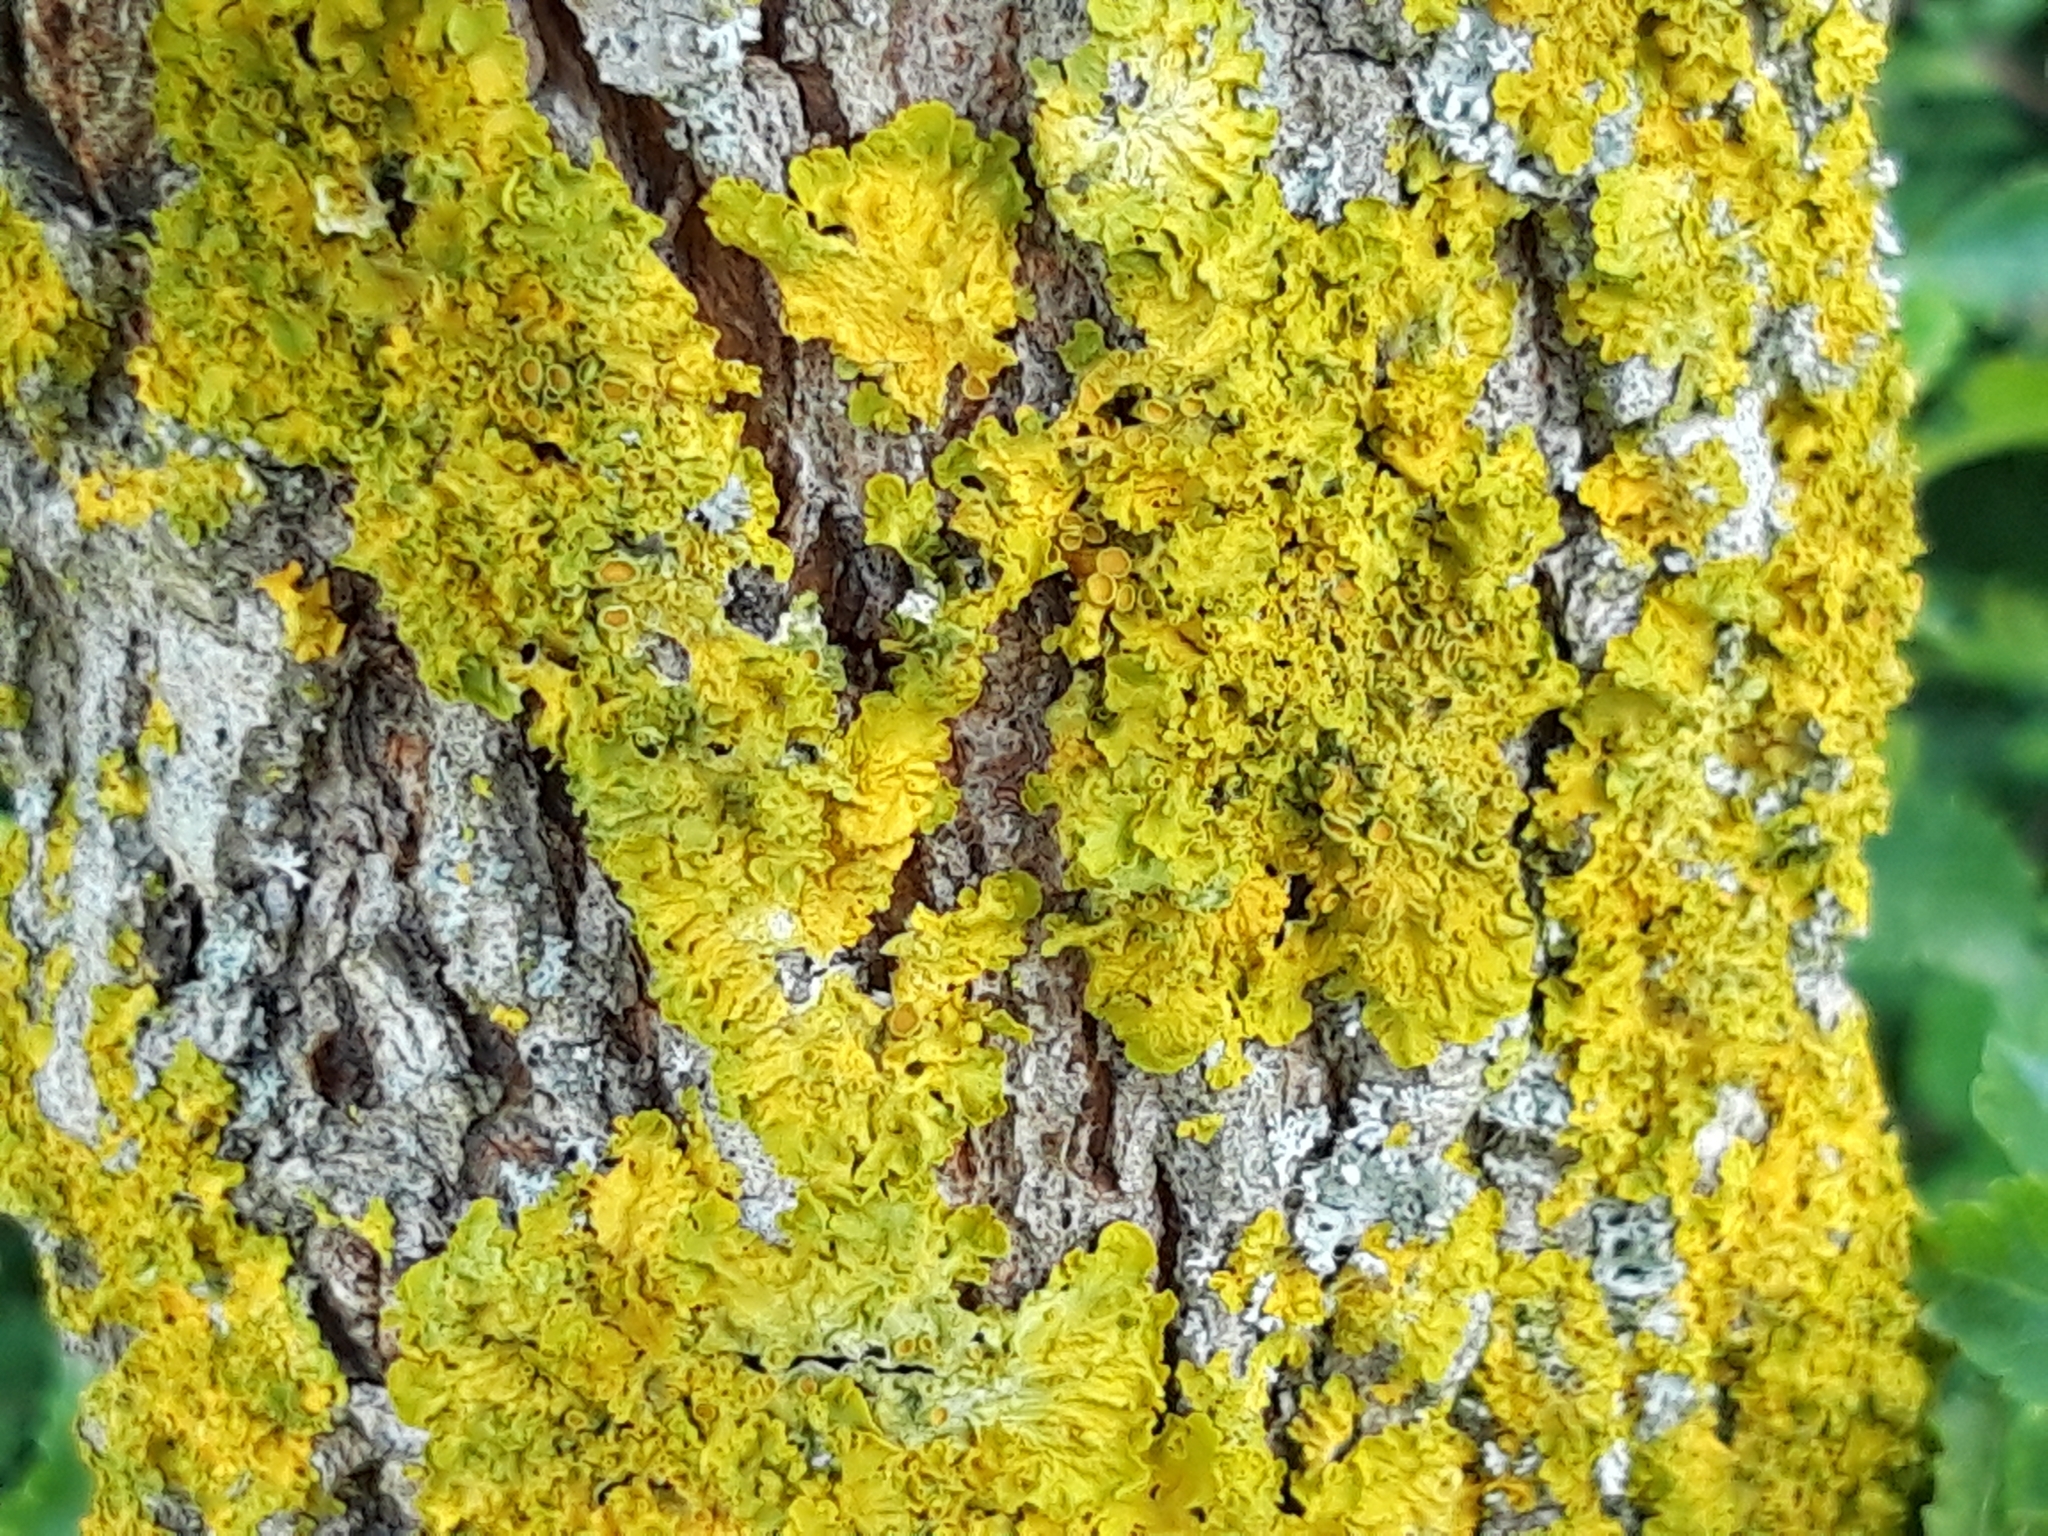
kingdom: Fungi
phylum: Ascomycota
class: Lecanoromycetes
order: Teloschistales
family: Teloschistaceae
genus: Xanthoria
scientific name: Xanthoria parietina
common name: Common orange lichen
